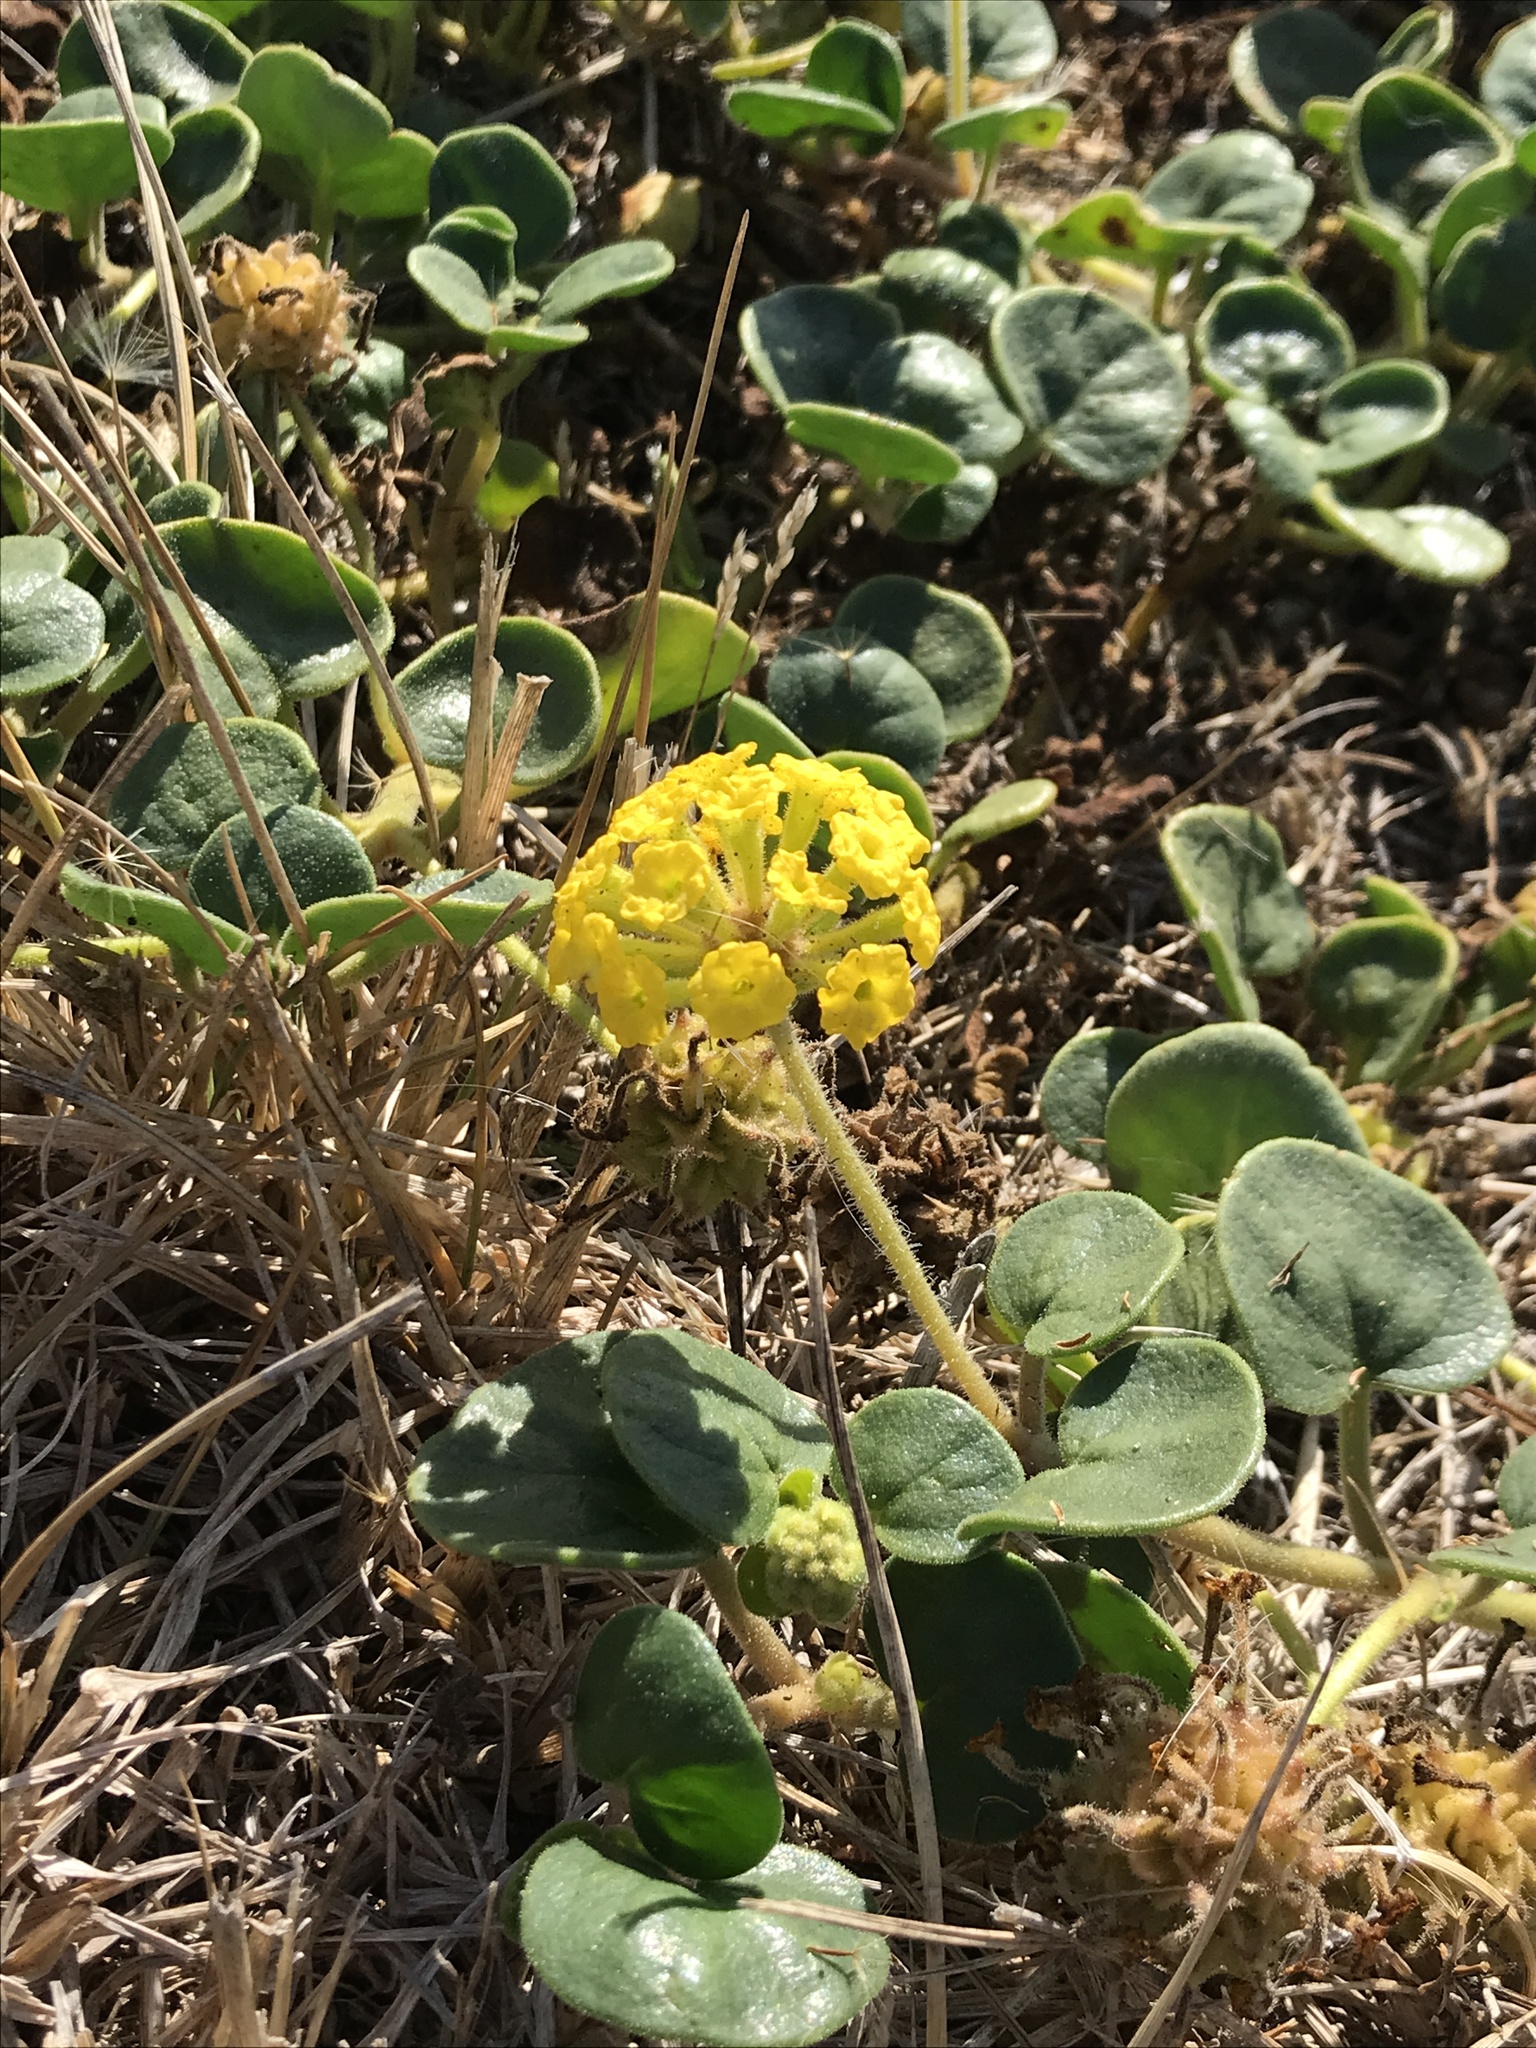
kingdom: Plantae
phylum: Tracheophyta
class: Magnoliopsida
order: Caryophyllales
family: Nyctaginaceae
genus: Abronia
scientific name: Abronia latifolia
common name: Yellow sand-verbena
